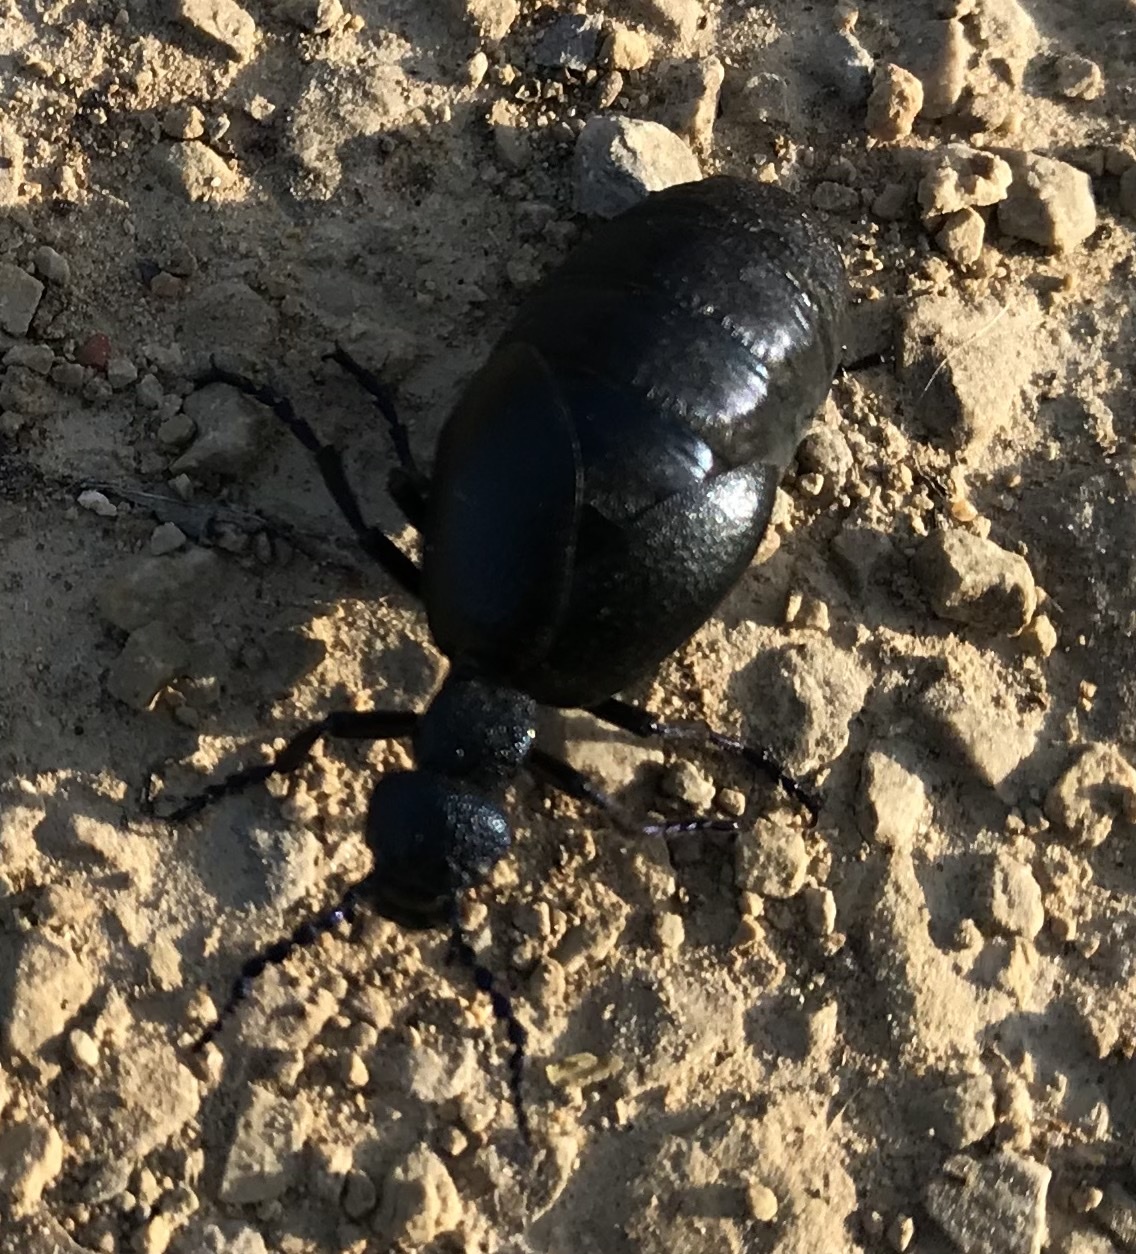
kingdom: Animalia
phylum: Arthropoda
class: Insecta
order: Coleoptera
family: Meloidae
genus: Meloe
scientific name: Meloe proscarabaeus
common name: Black oil-beetle
